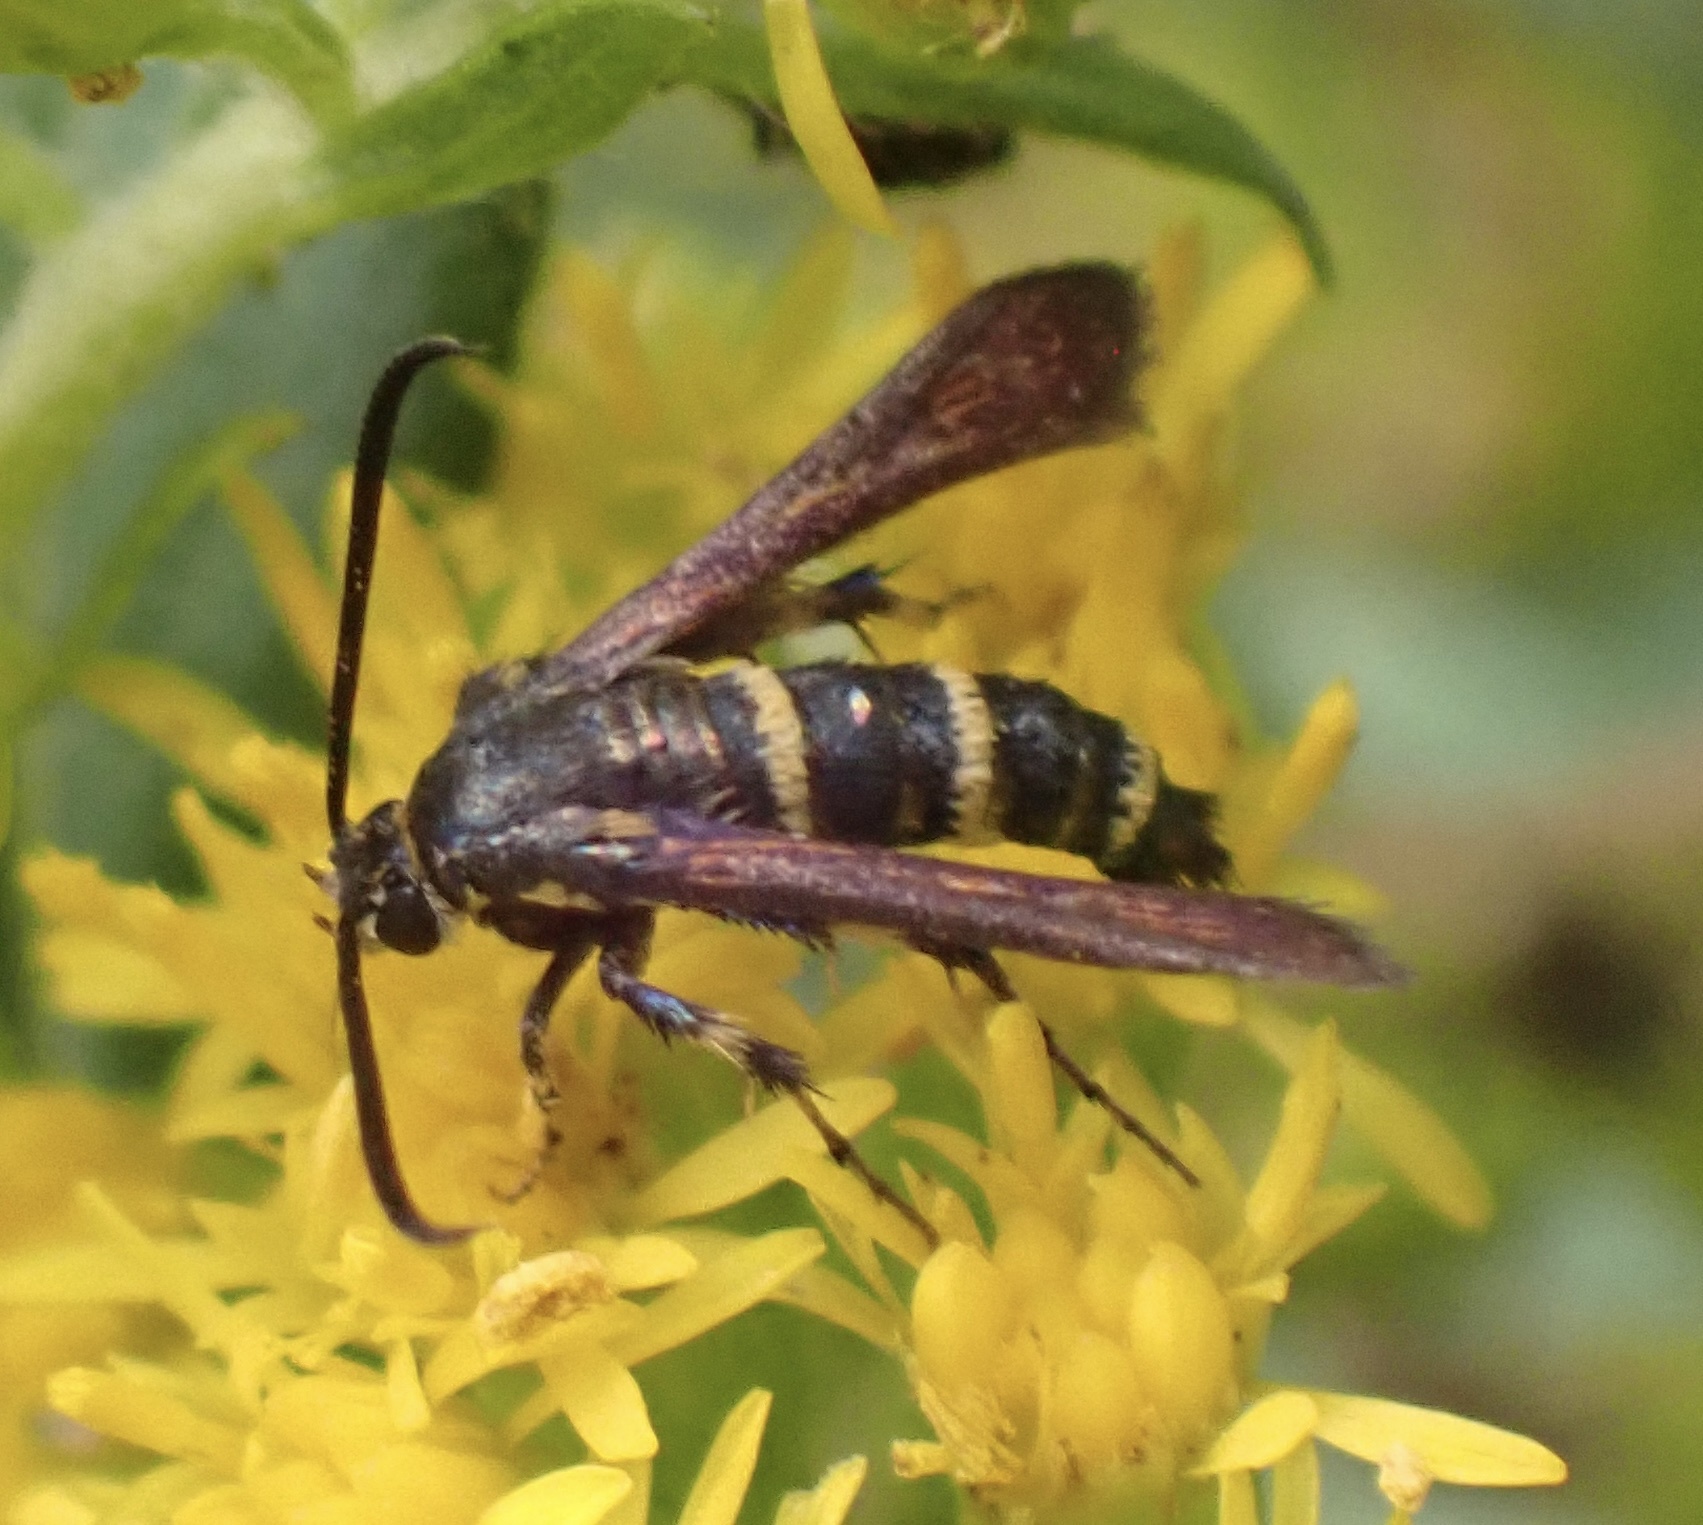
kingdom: Animalia
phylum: Arthropoda
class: Insecta
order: Lepidoptera
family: Sesiidae
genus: Osminia
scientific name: Osminia ruficornis
